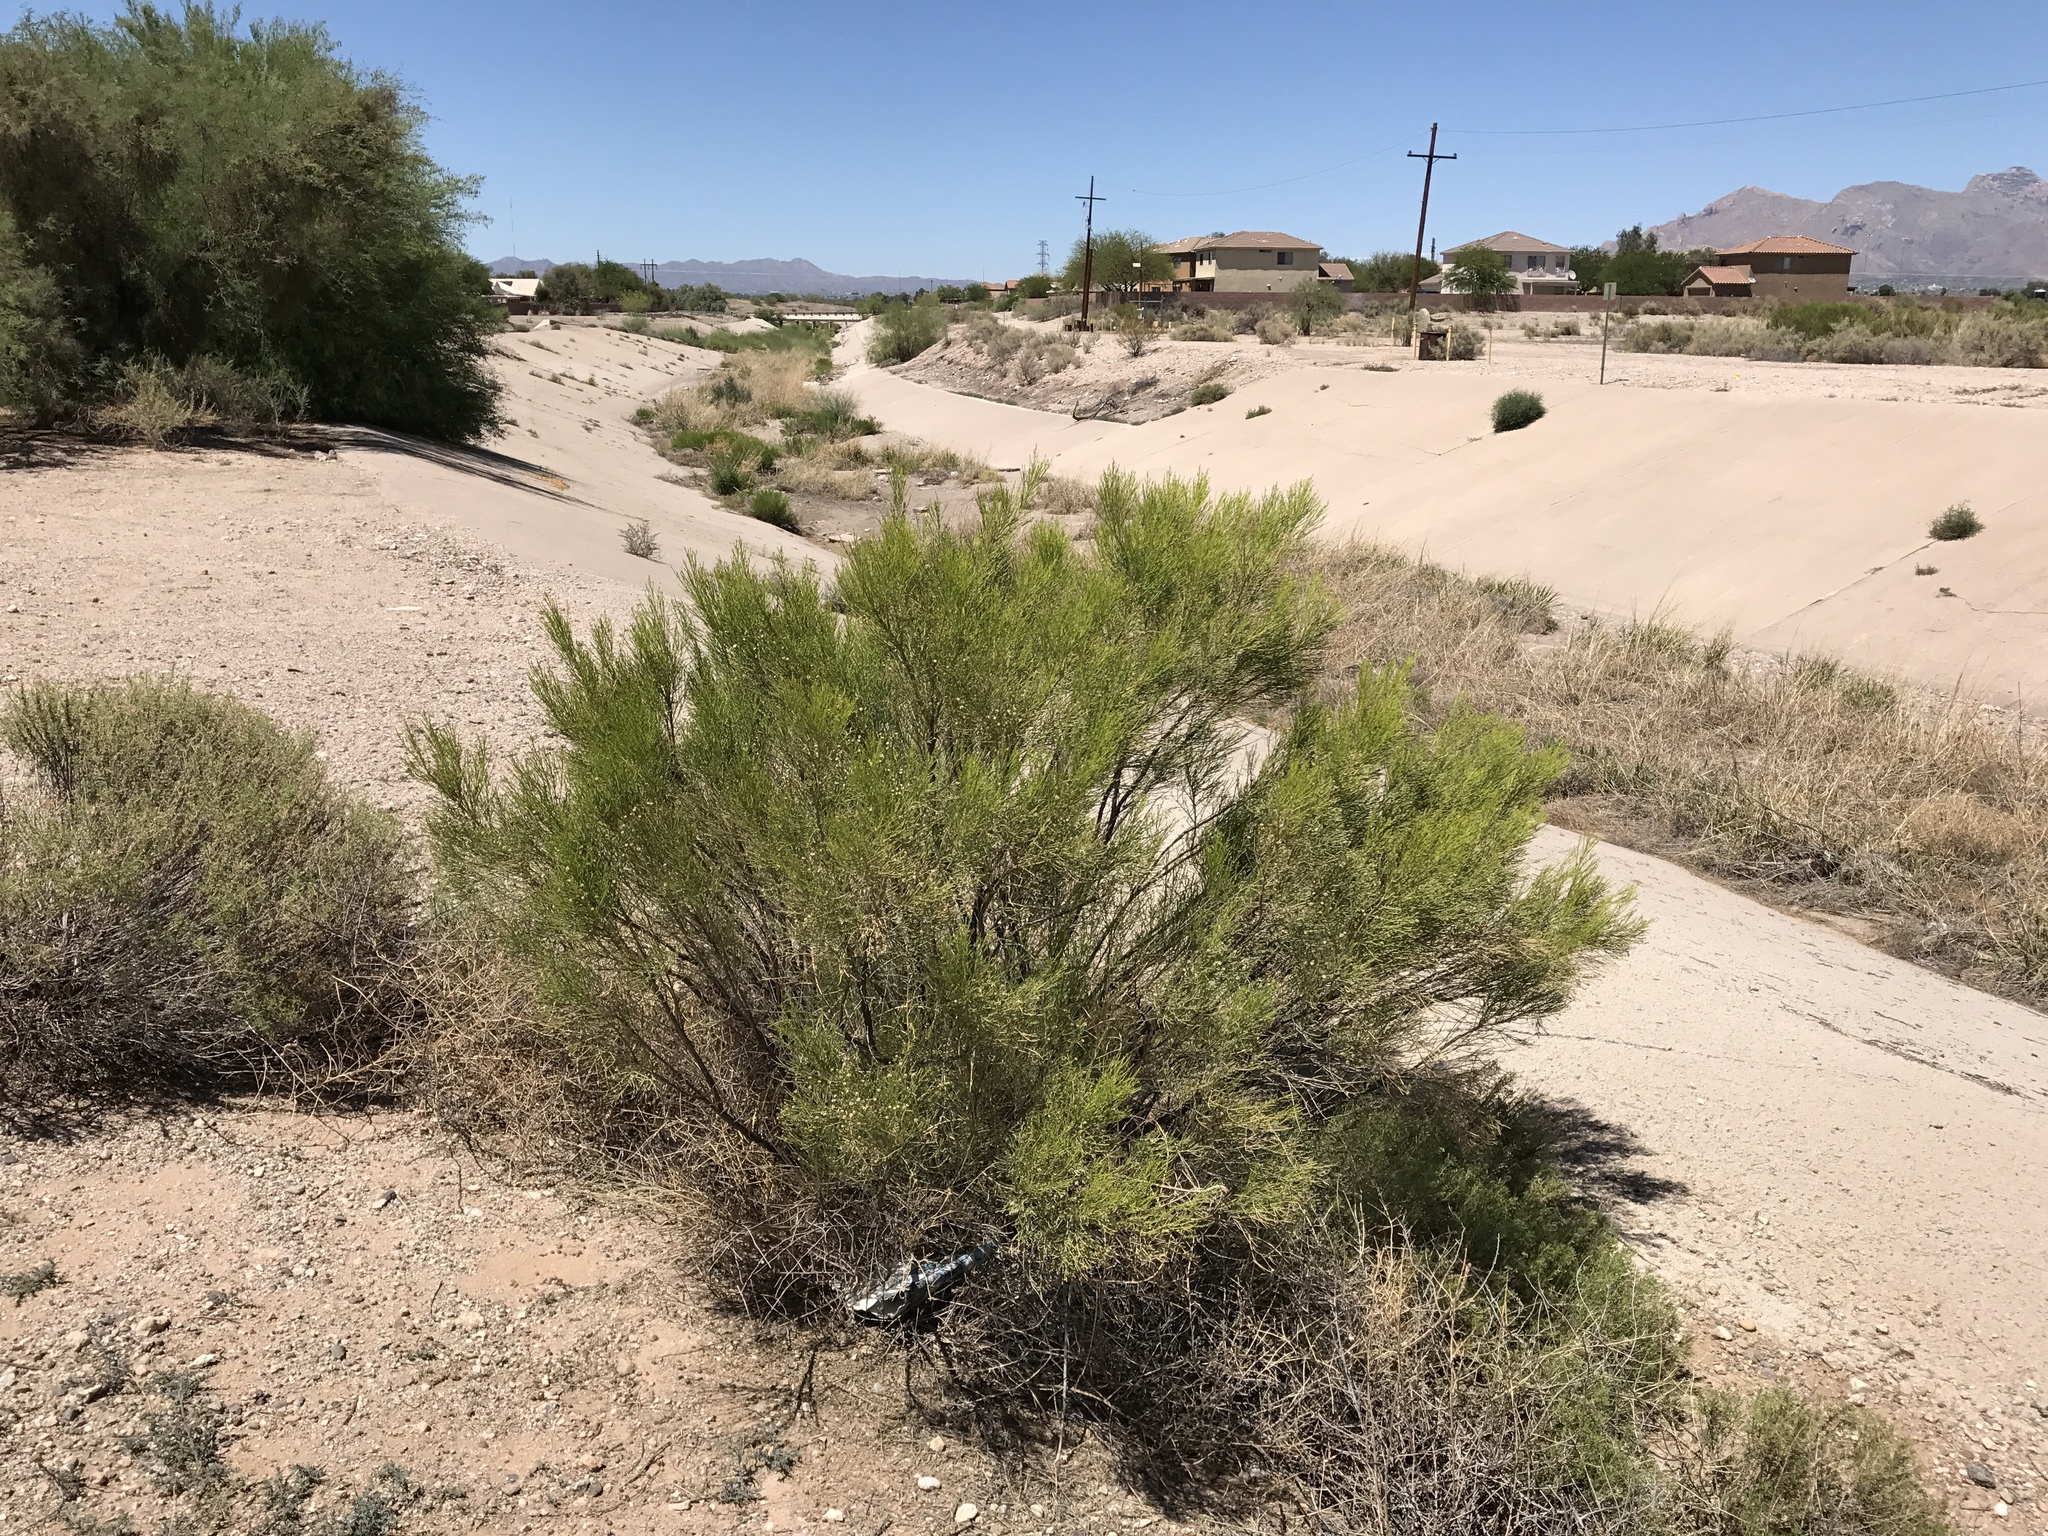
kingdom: Plantae
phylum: Tracheophyta
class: Magnoliopsida
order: Asterales
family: Asteraceae
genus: Baccharis
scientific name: Baccharis sarothroides
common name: Desert-broom
